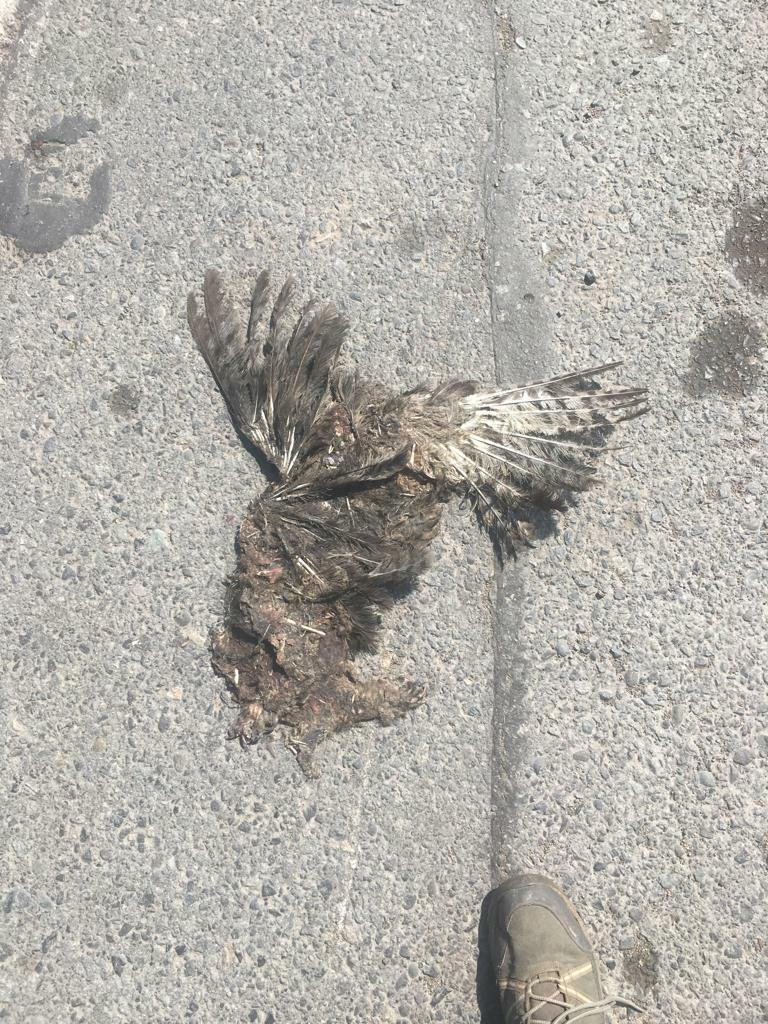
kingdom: Animalia
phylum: Chordata
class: Aves
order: Falconiformes
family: Falconidae
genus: Daptrius
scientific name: Daptrius
